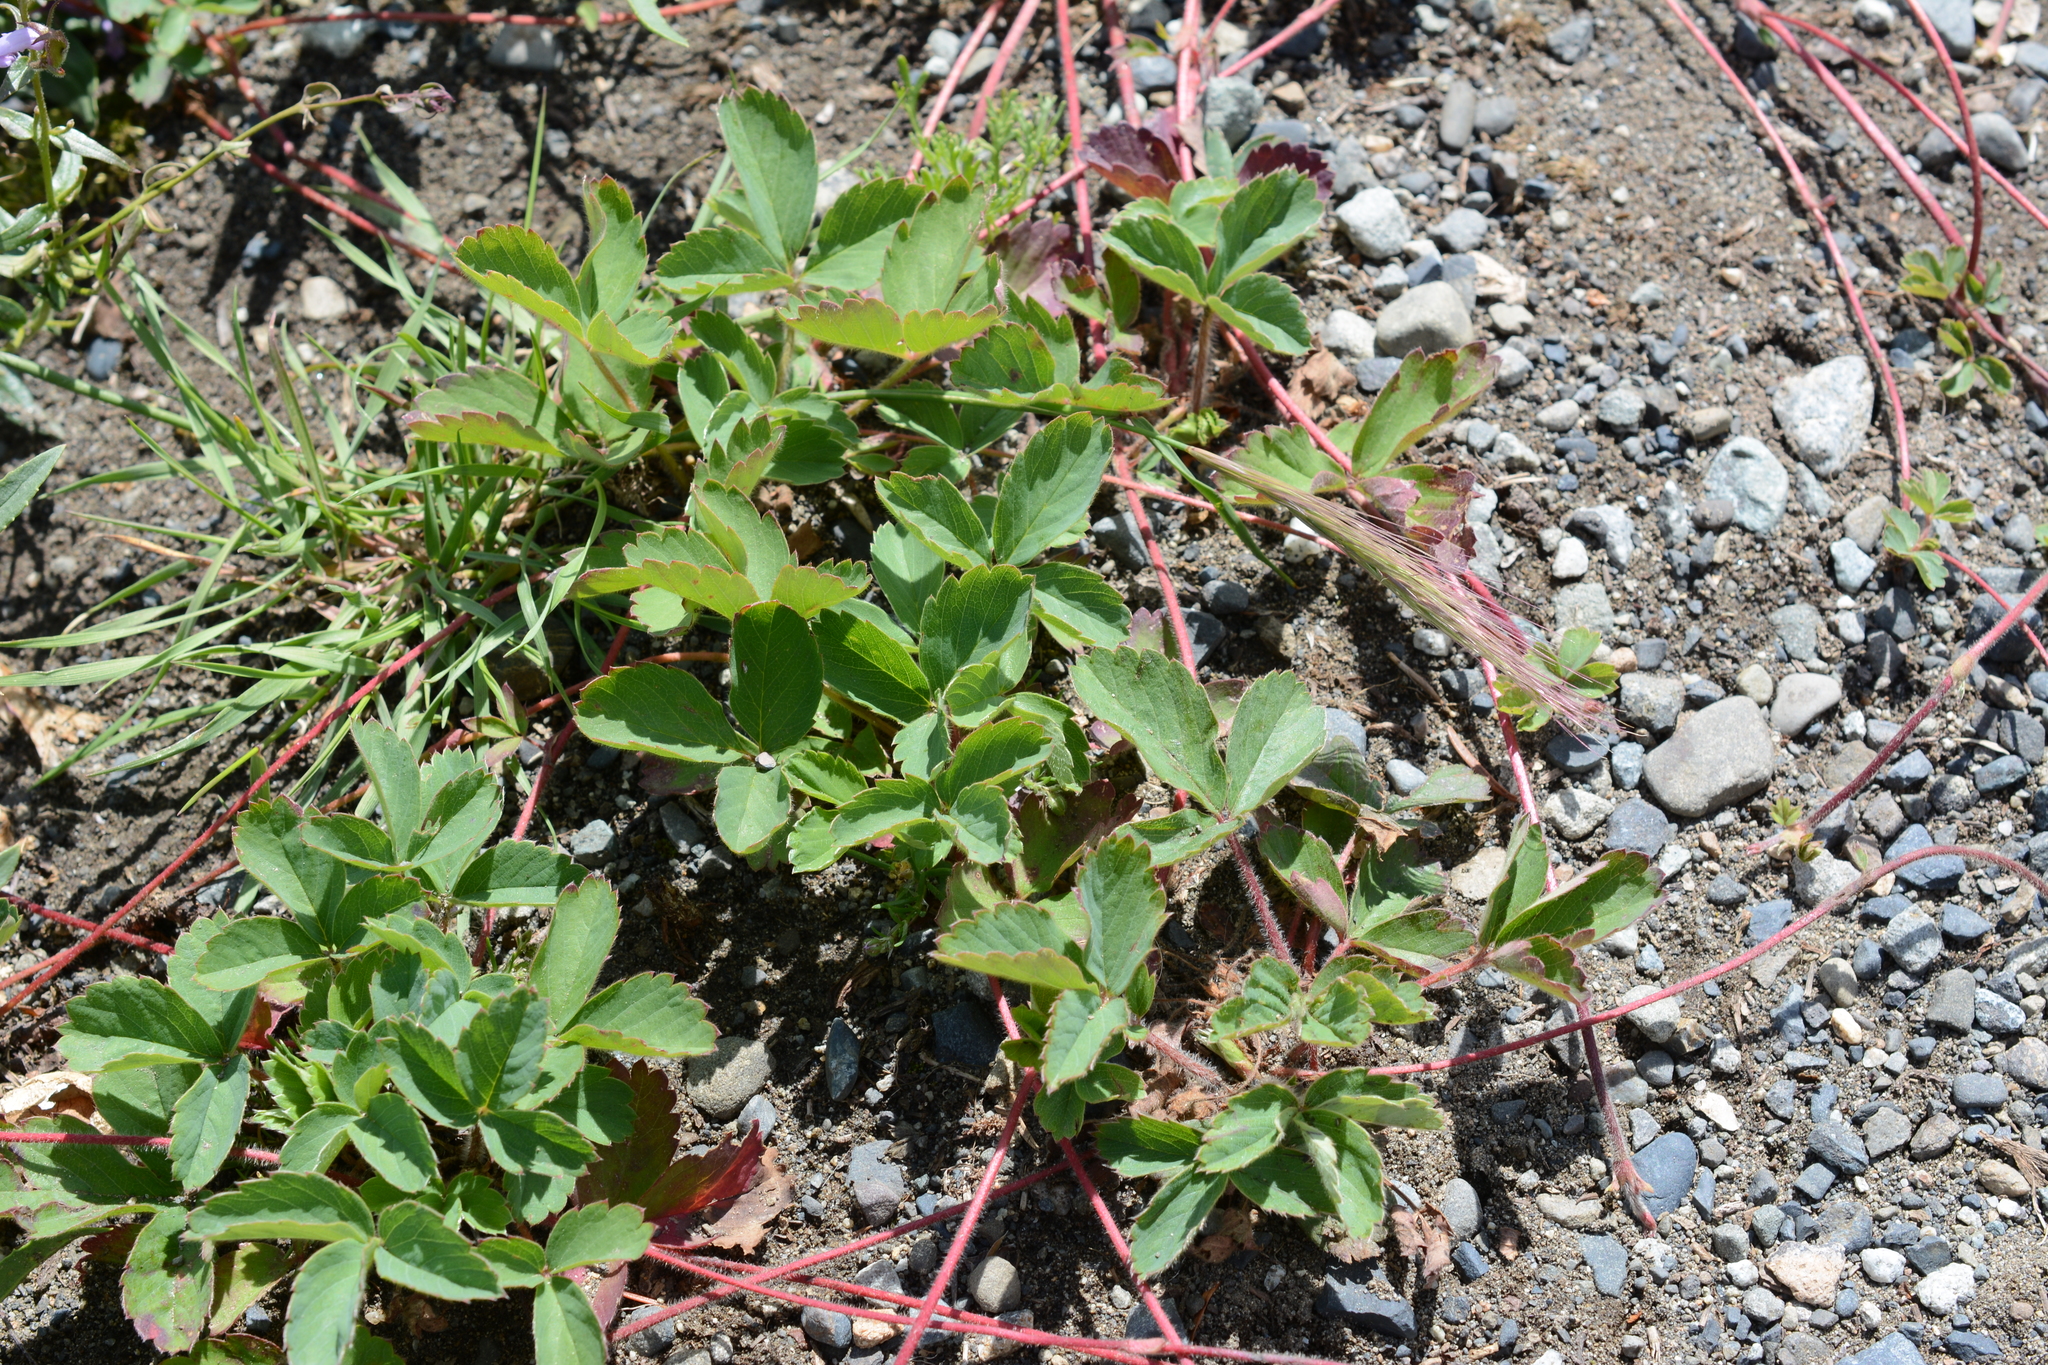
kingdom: Plantae
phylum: Tracheophyta
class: Magnoliopsida
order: Rosales
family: Rosaceae
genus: Fragaria
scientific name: Fragaria virginiana
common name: Thickleaved wild strawberry
